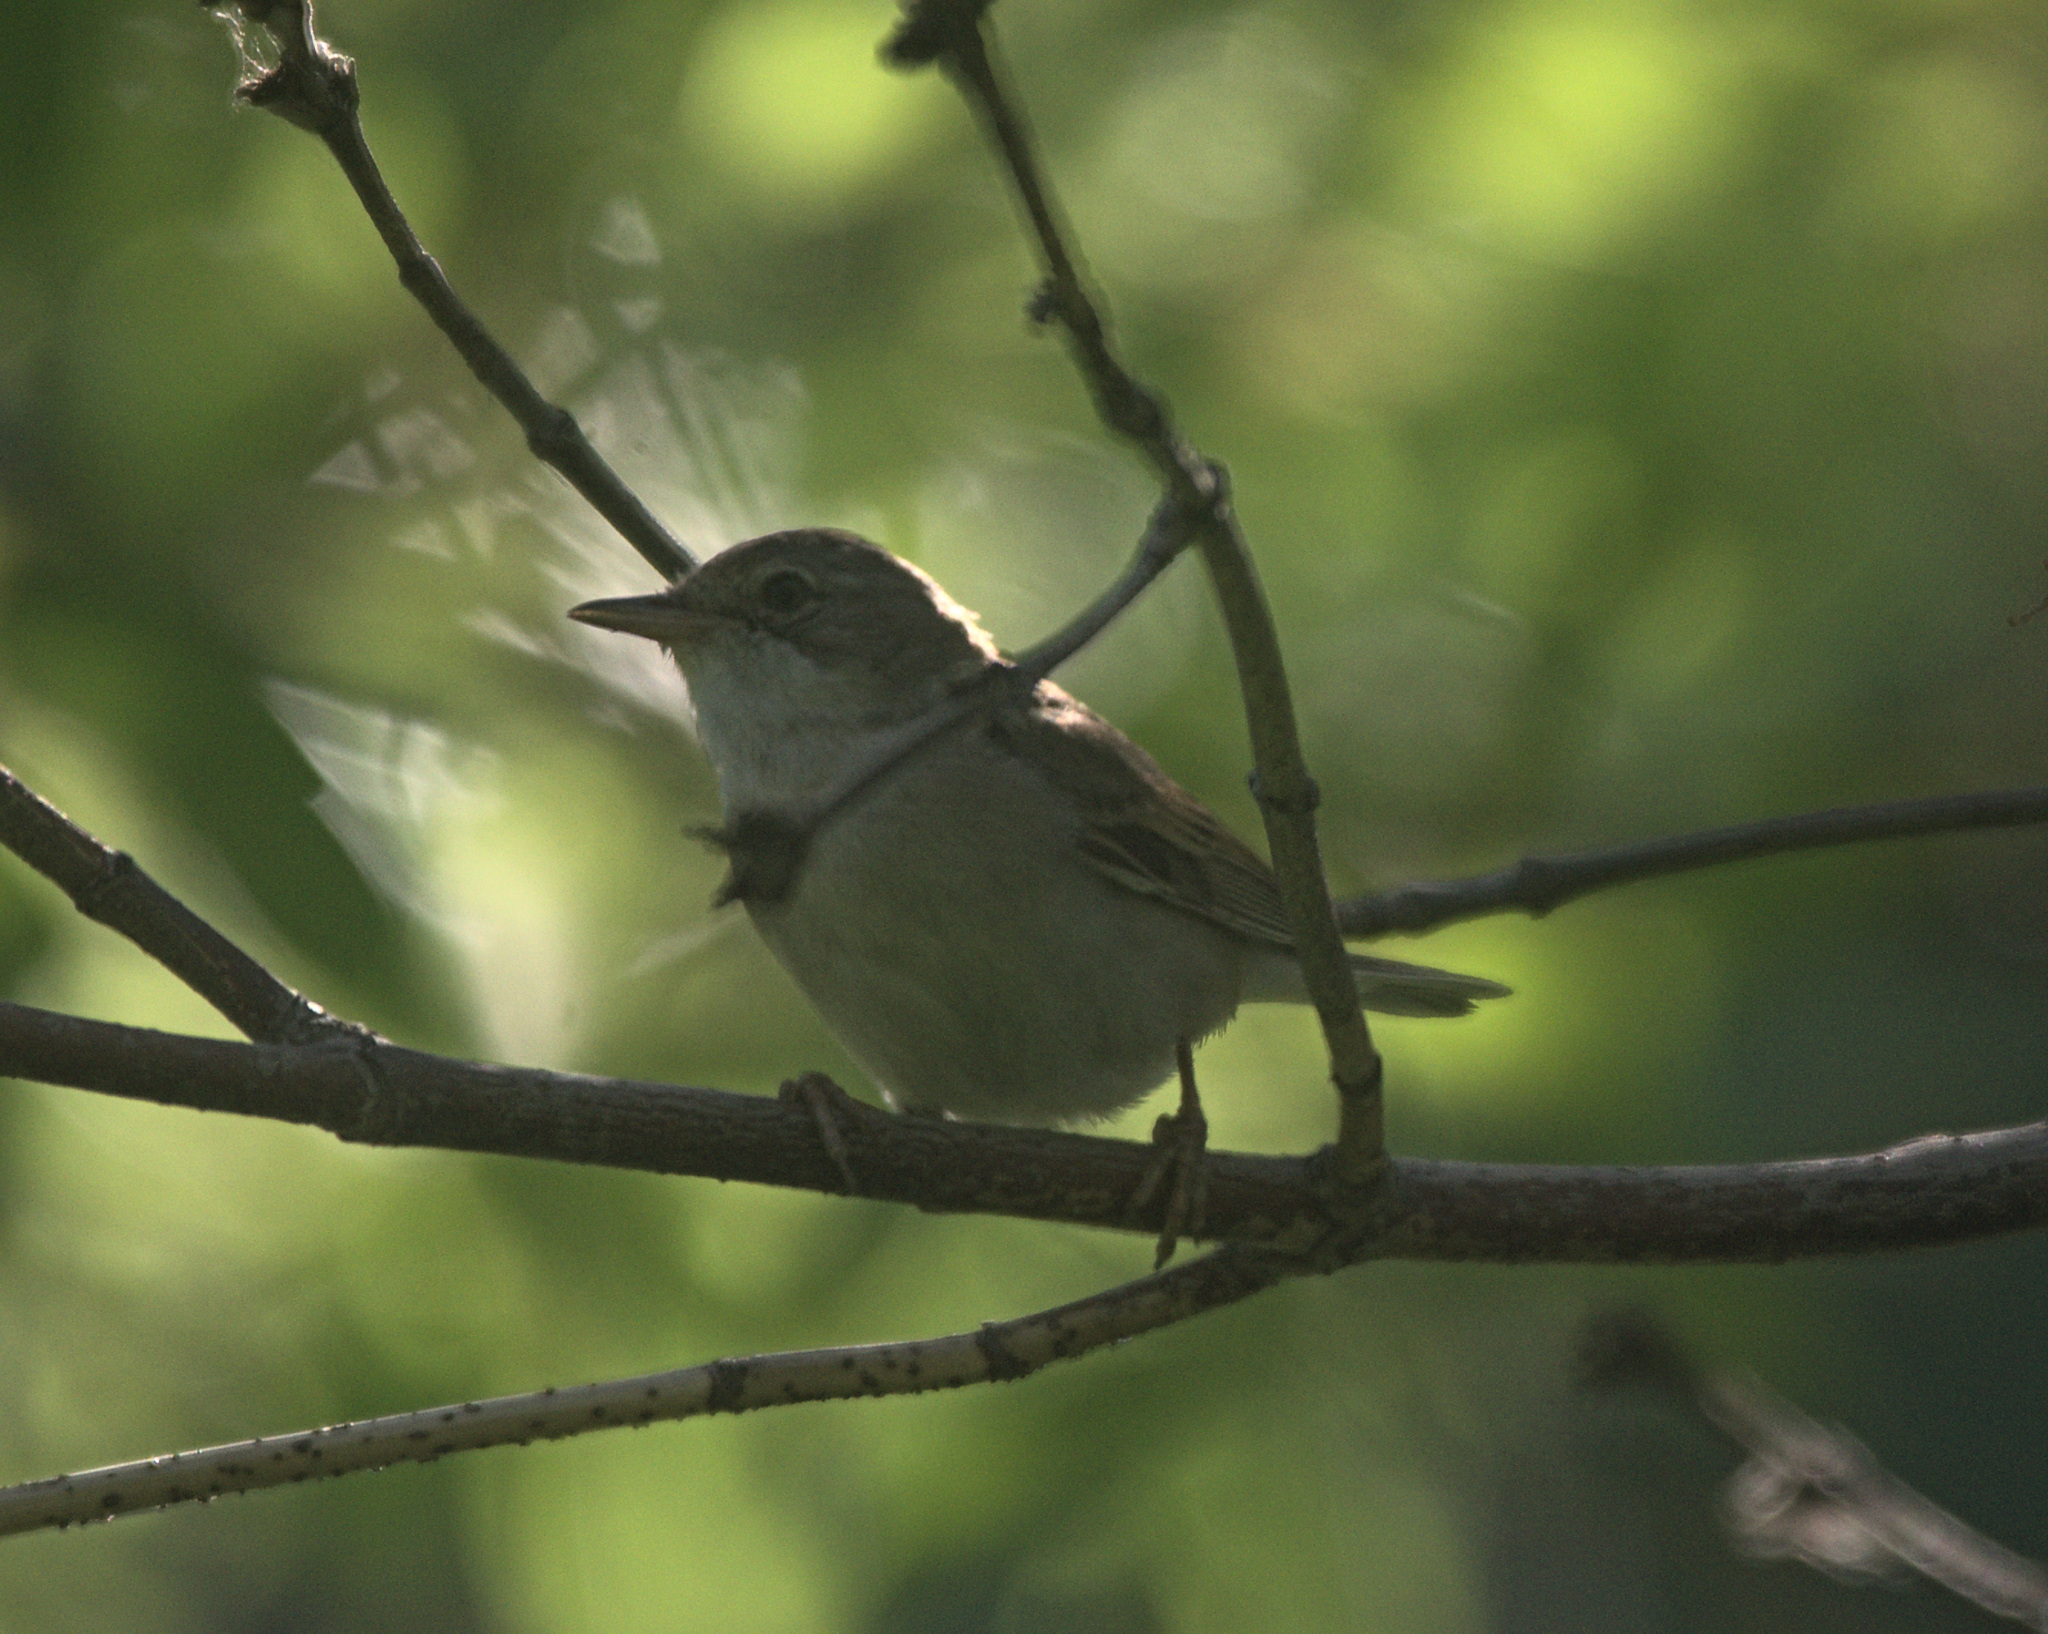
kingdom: Animalia
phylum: Chordata
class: Aves
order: Passeriformes
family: Sylviidae
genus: Sylvia
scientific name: Sylvia communis
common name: Common whitethroat
